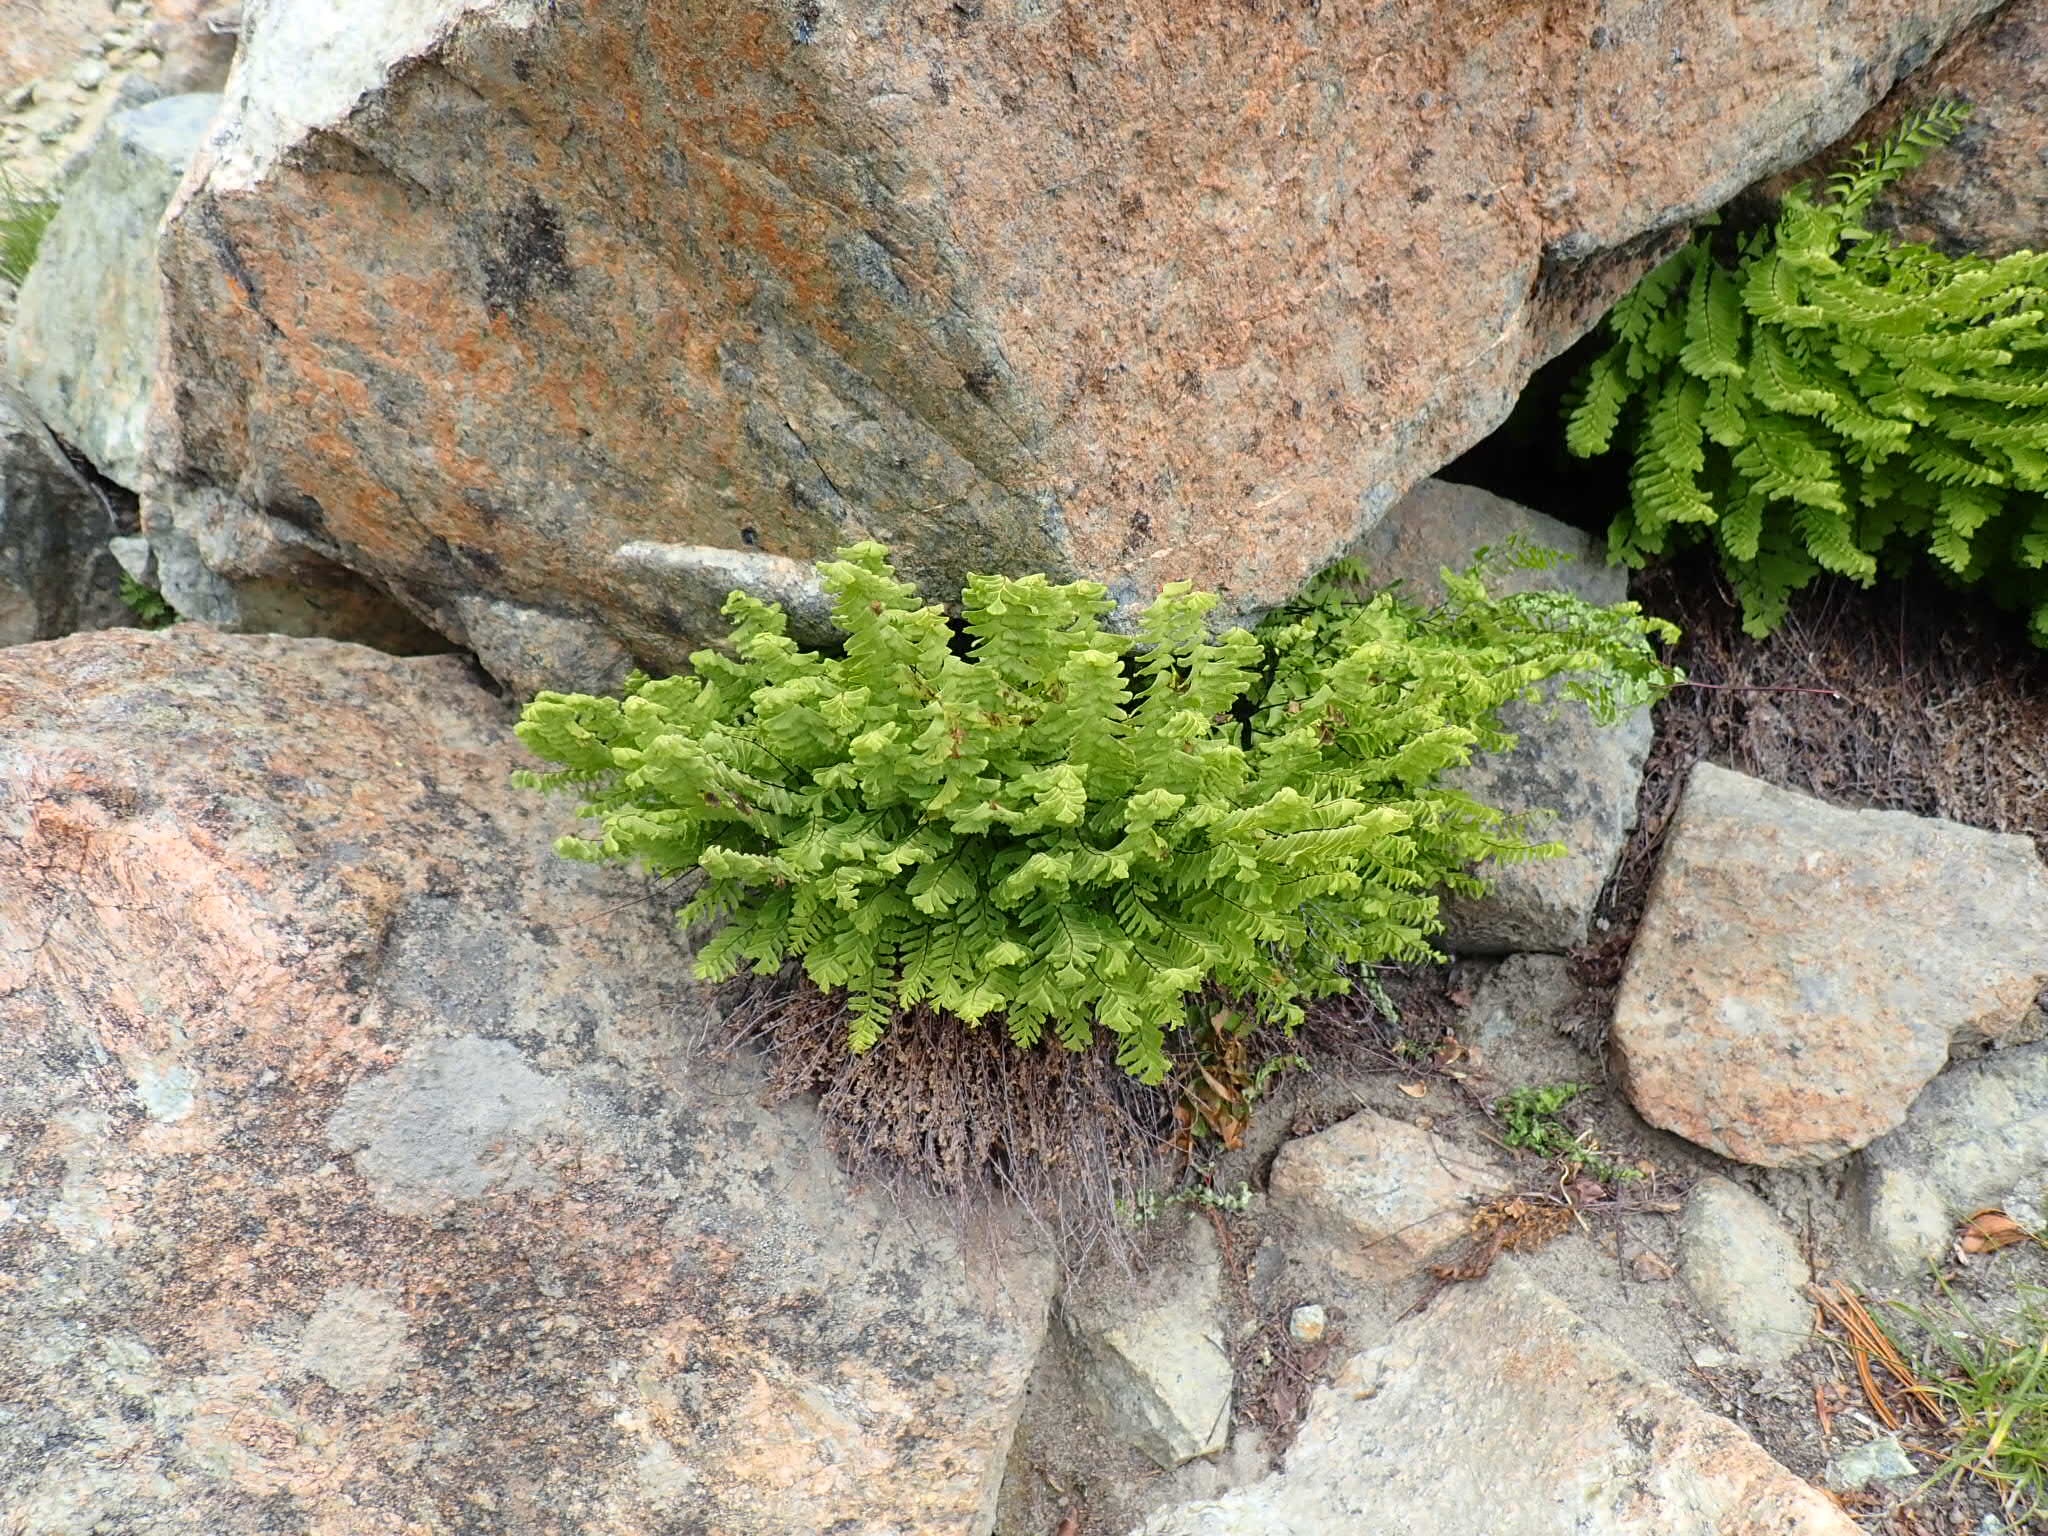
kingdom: Plantae
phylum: Tracheophyta
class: Polypodiopsida
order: Polypodiales
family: Pteridaceae
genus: Adiantum
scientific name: Adiantum aleuticum
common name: Aleutian maidenhair fern
